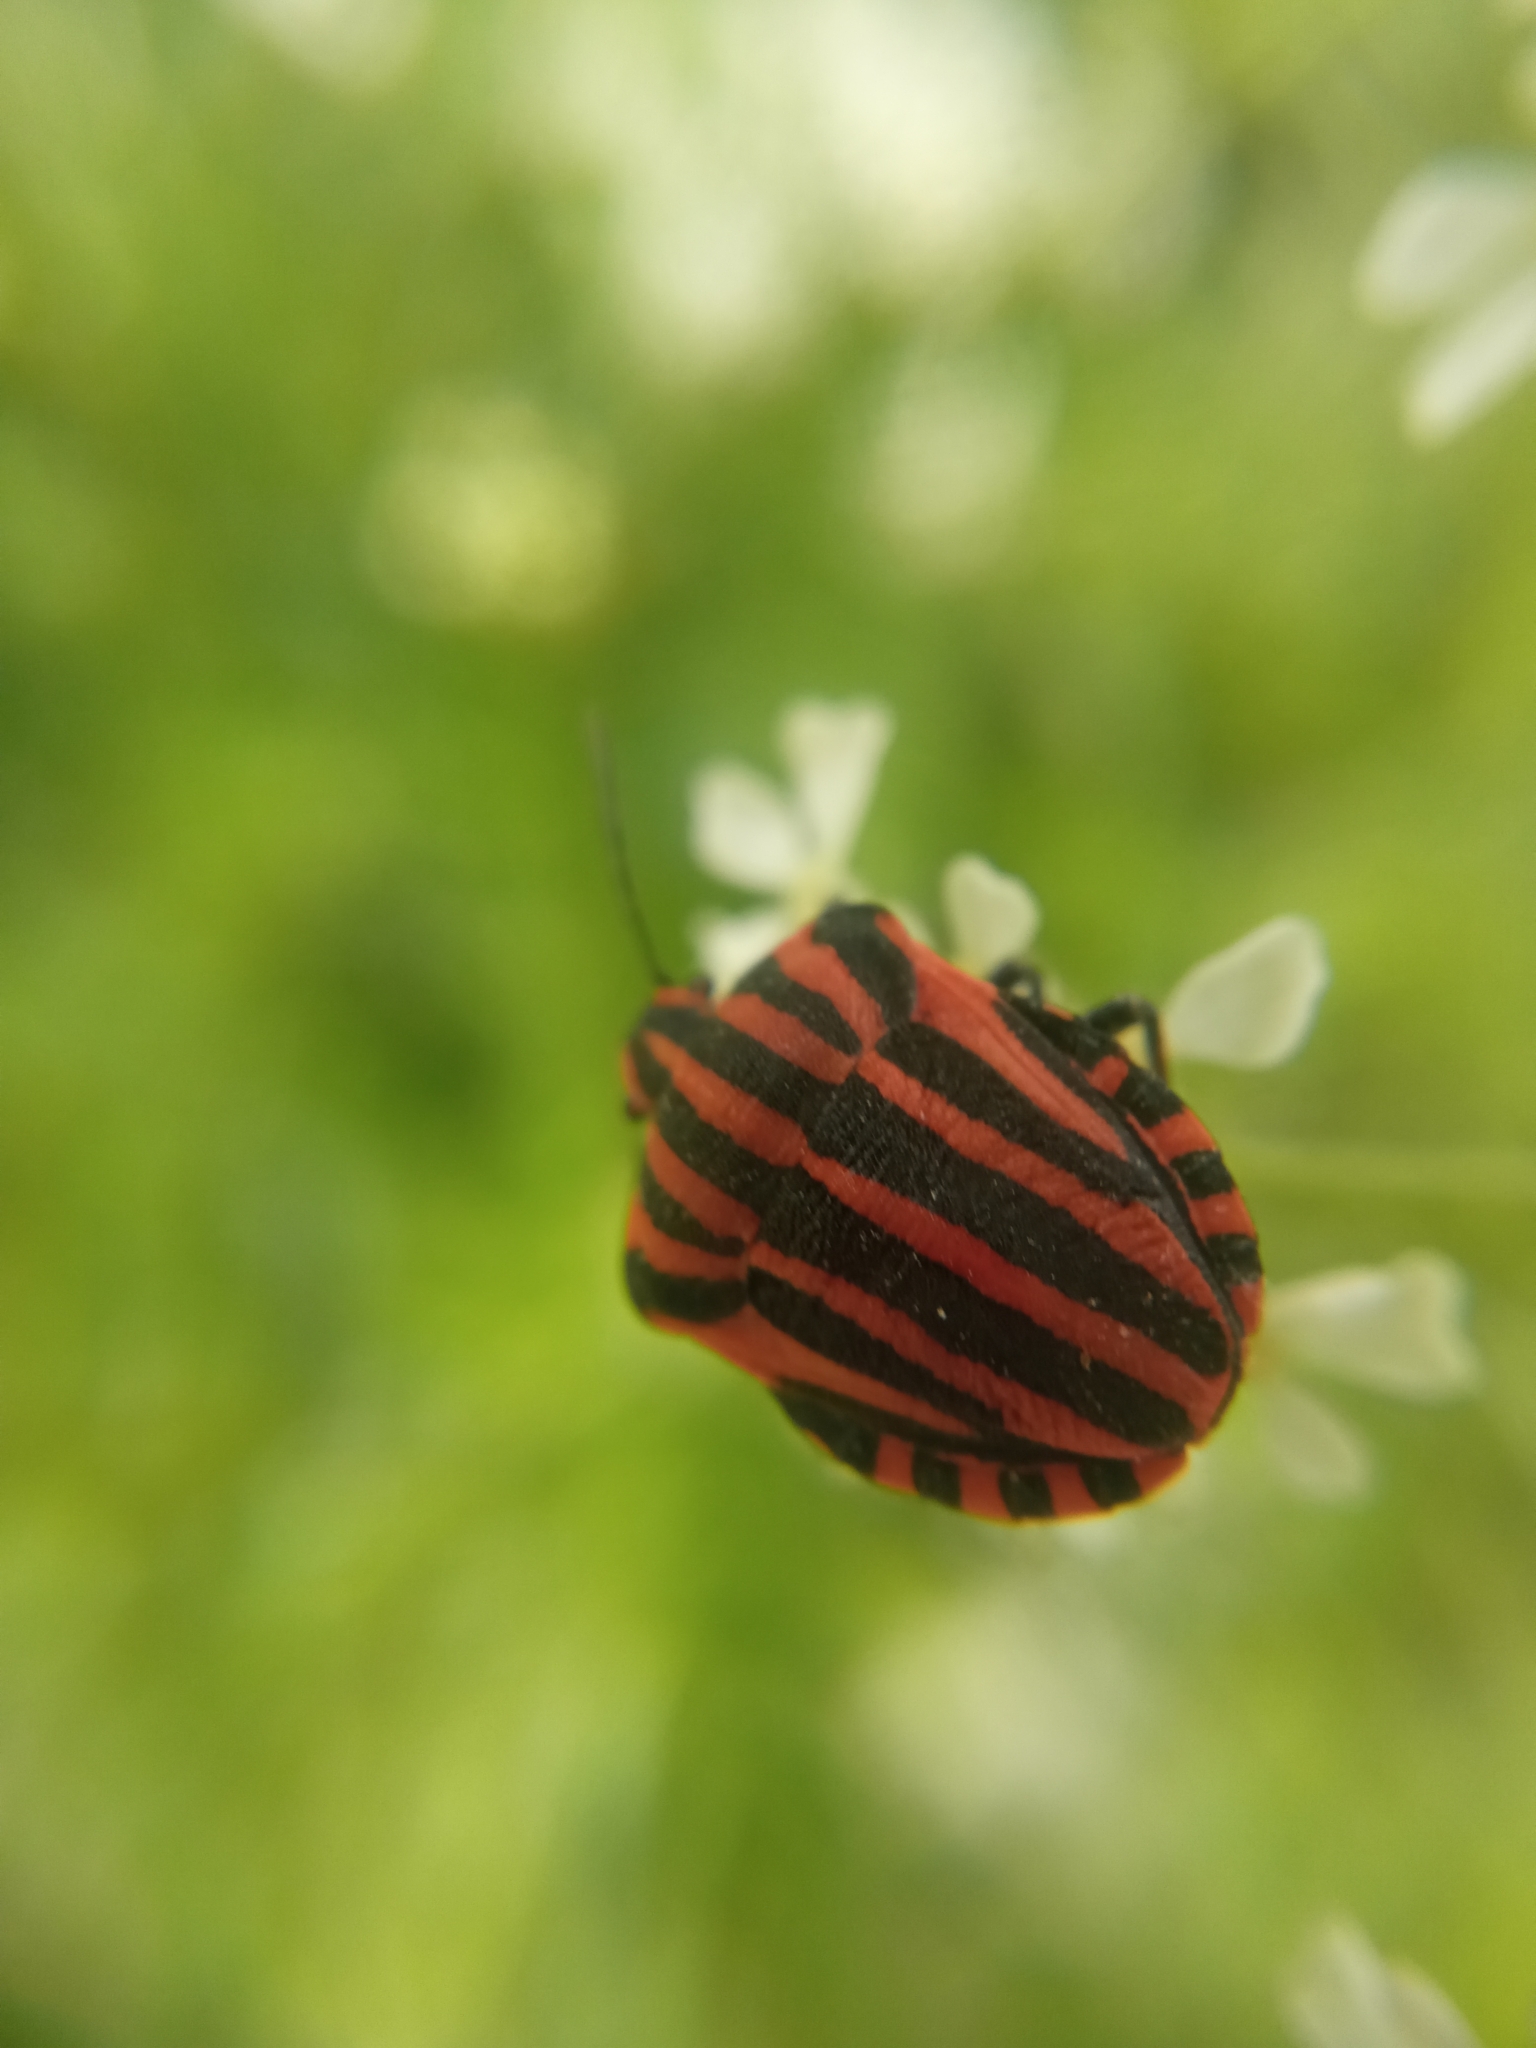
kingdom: Animalia
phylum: Arthropoda
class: Insecta
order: Hemiptera
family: Pentatomidae
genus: Graphosoma
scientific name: Graphosoma italicum
